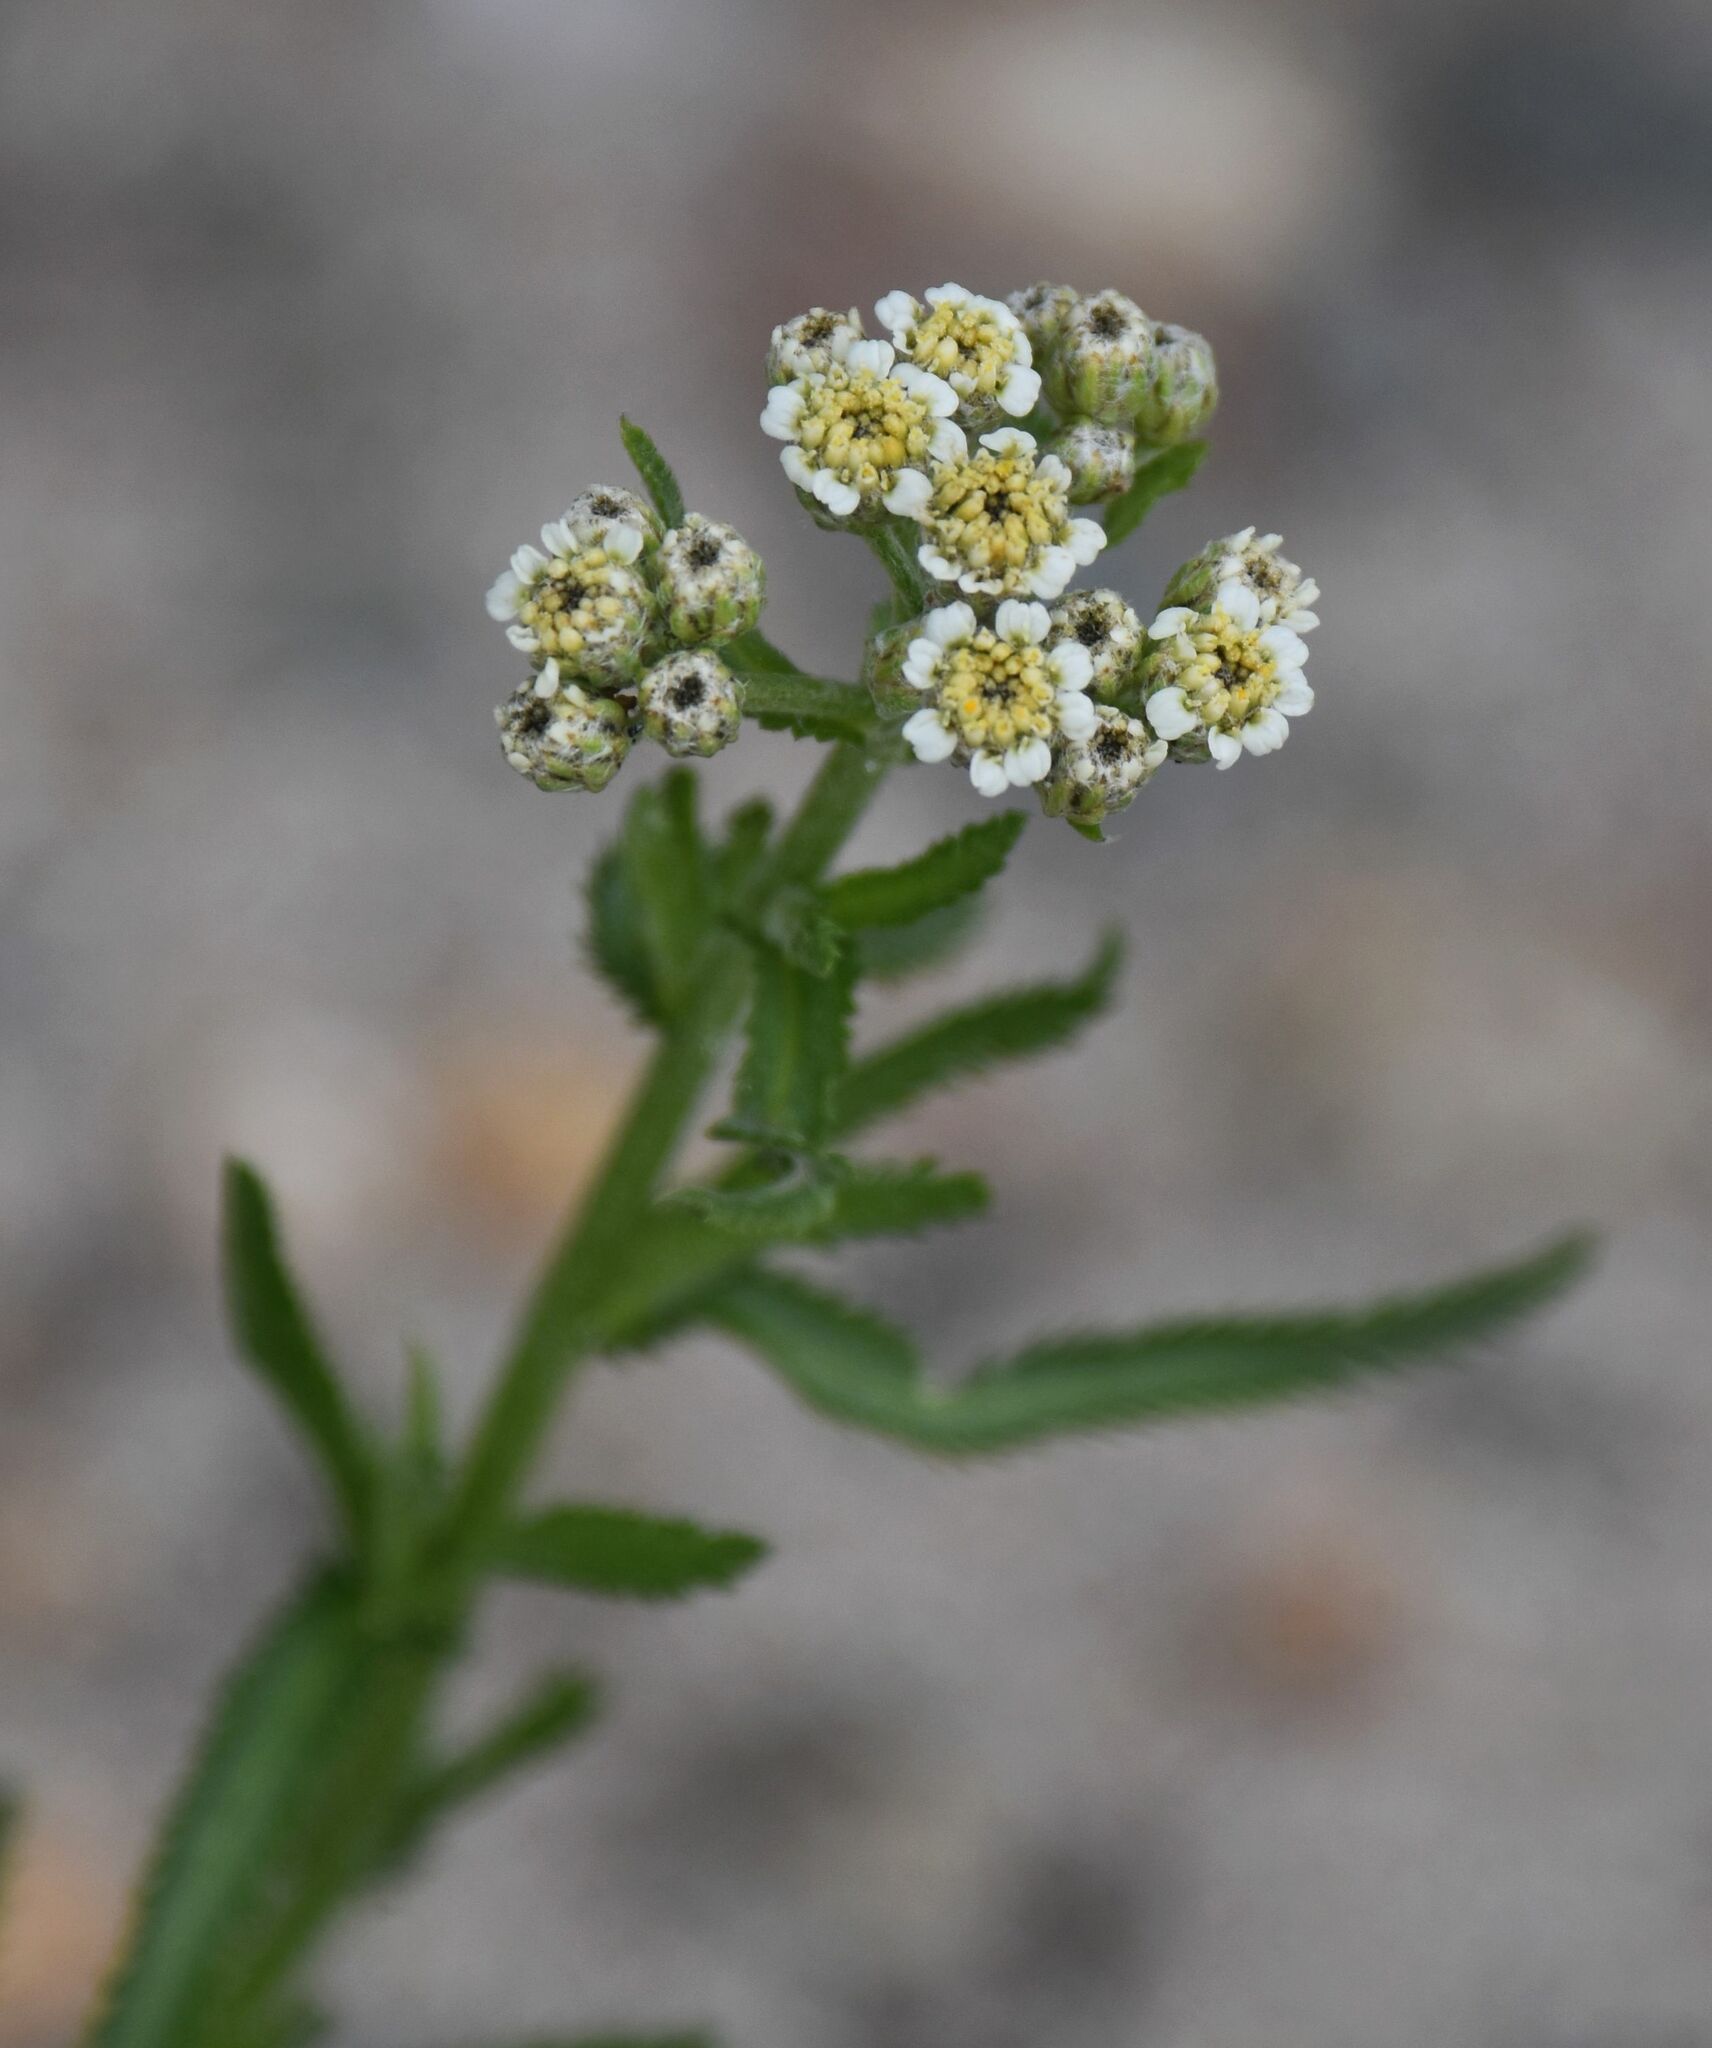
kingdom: Plantae
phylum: Tracheophyta
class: Magnoliopsida
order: Asterales
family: Asteraceae
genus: Achillea
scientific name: Achillea alpina
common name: Siberian yarrow
